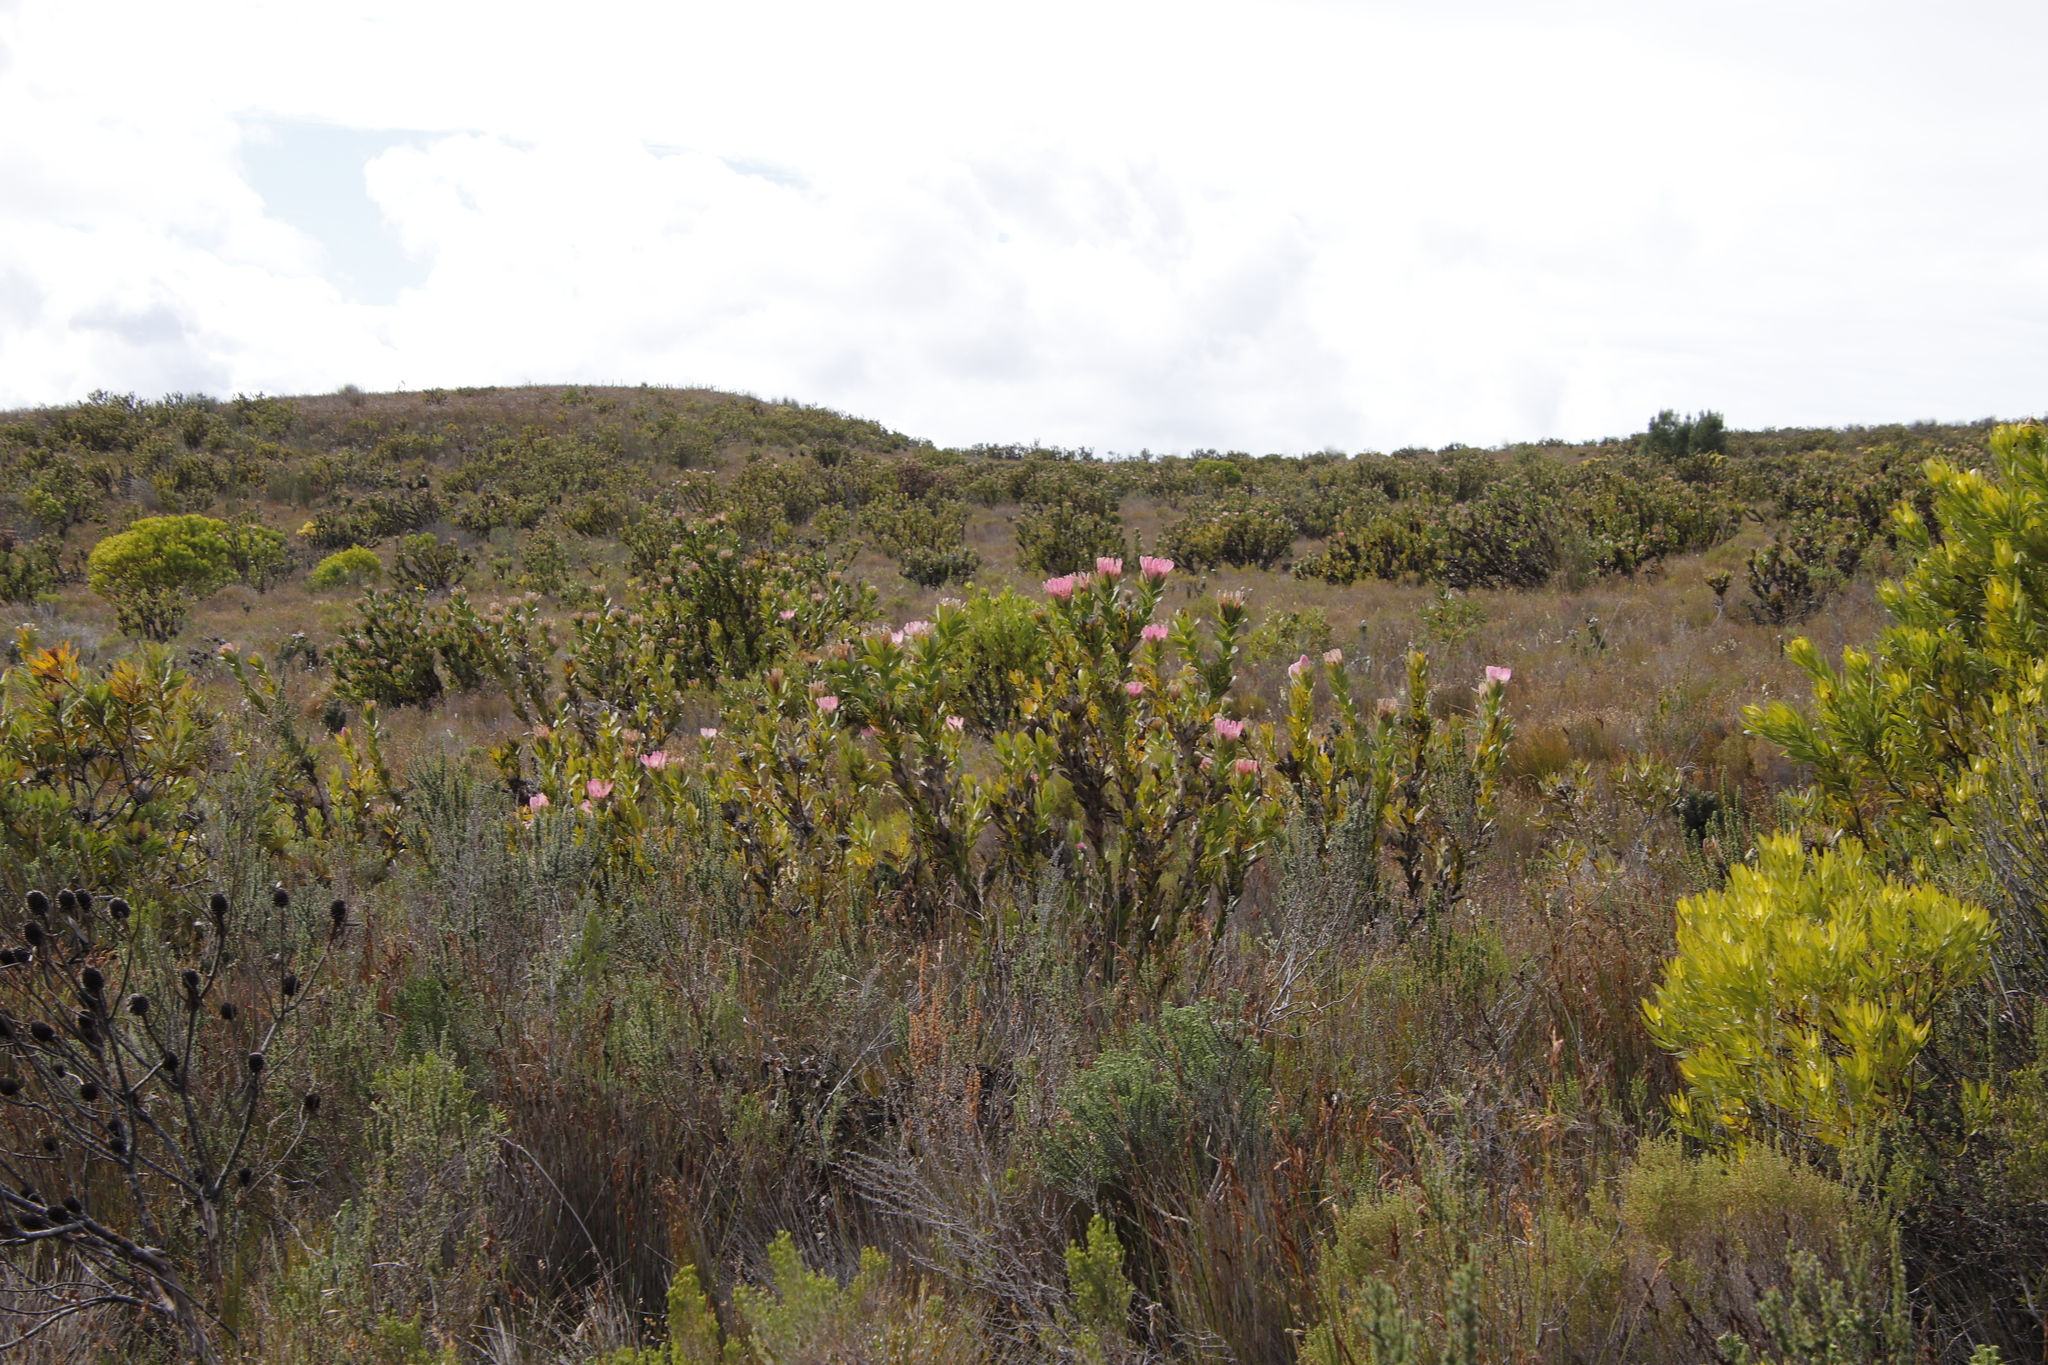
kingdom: Plantae
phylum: Tracheophyta
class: Magnoliopsida
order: Proteales
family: Proteaceae
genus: Protea
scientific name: Protea compacta
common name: Bot river protea
